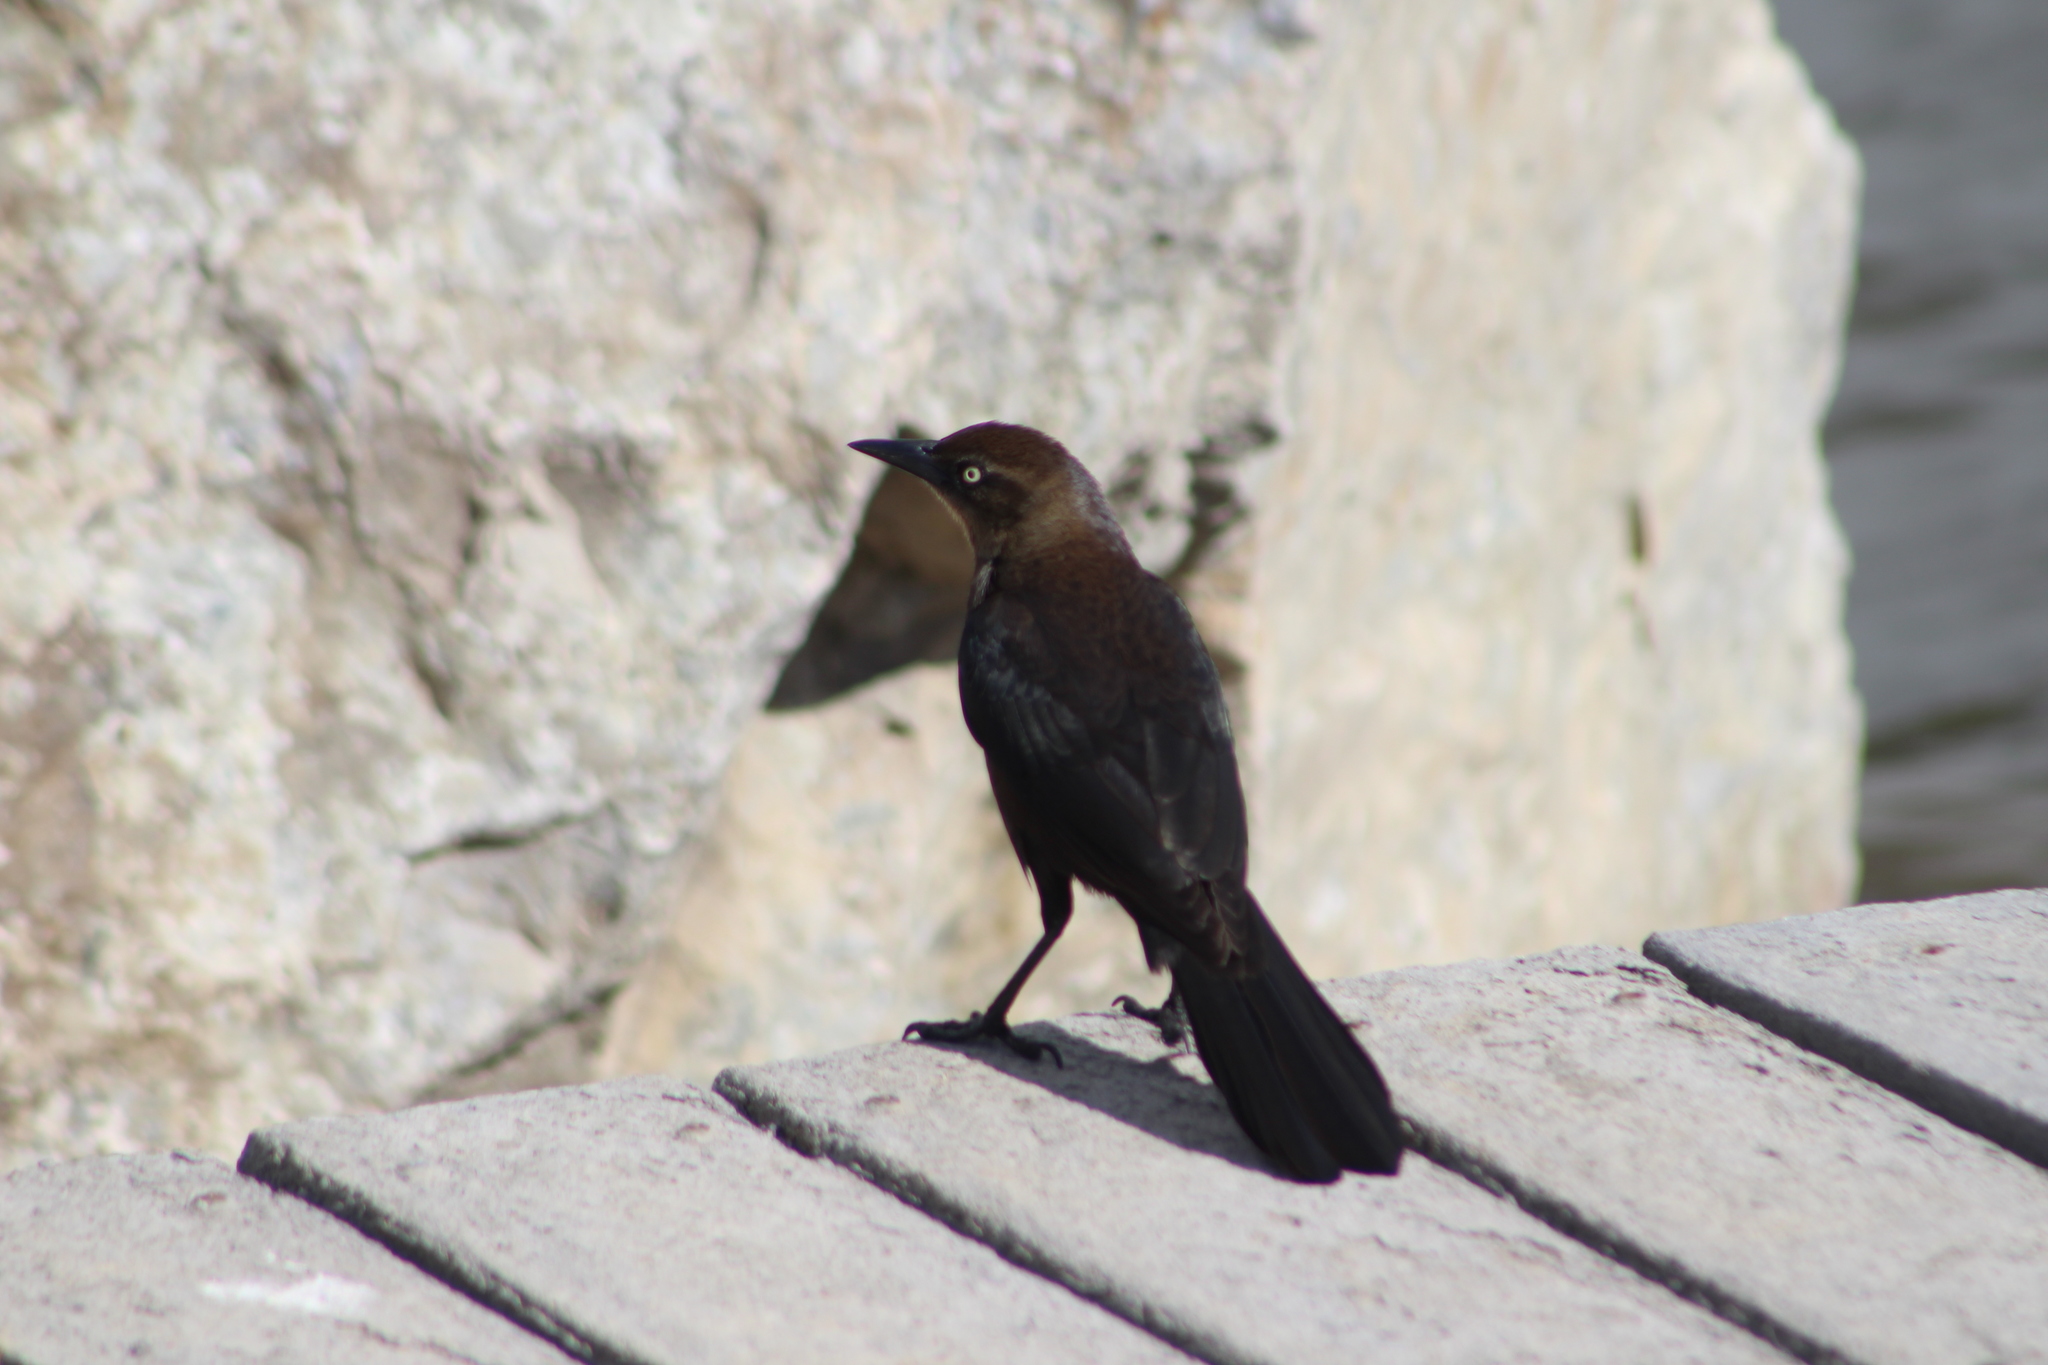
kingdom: Animalia
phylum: Chordata
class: Aves
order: Passeriformes
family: Icteridae
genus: Quiscalus
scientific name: Quiscalus mexicanus
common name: Great-tailed grackle
